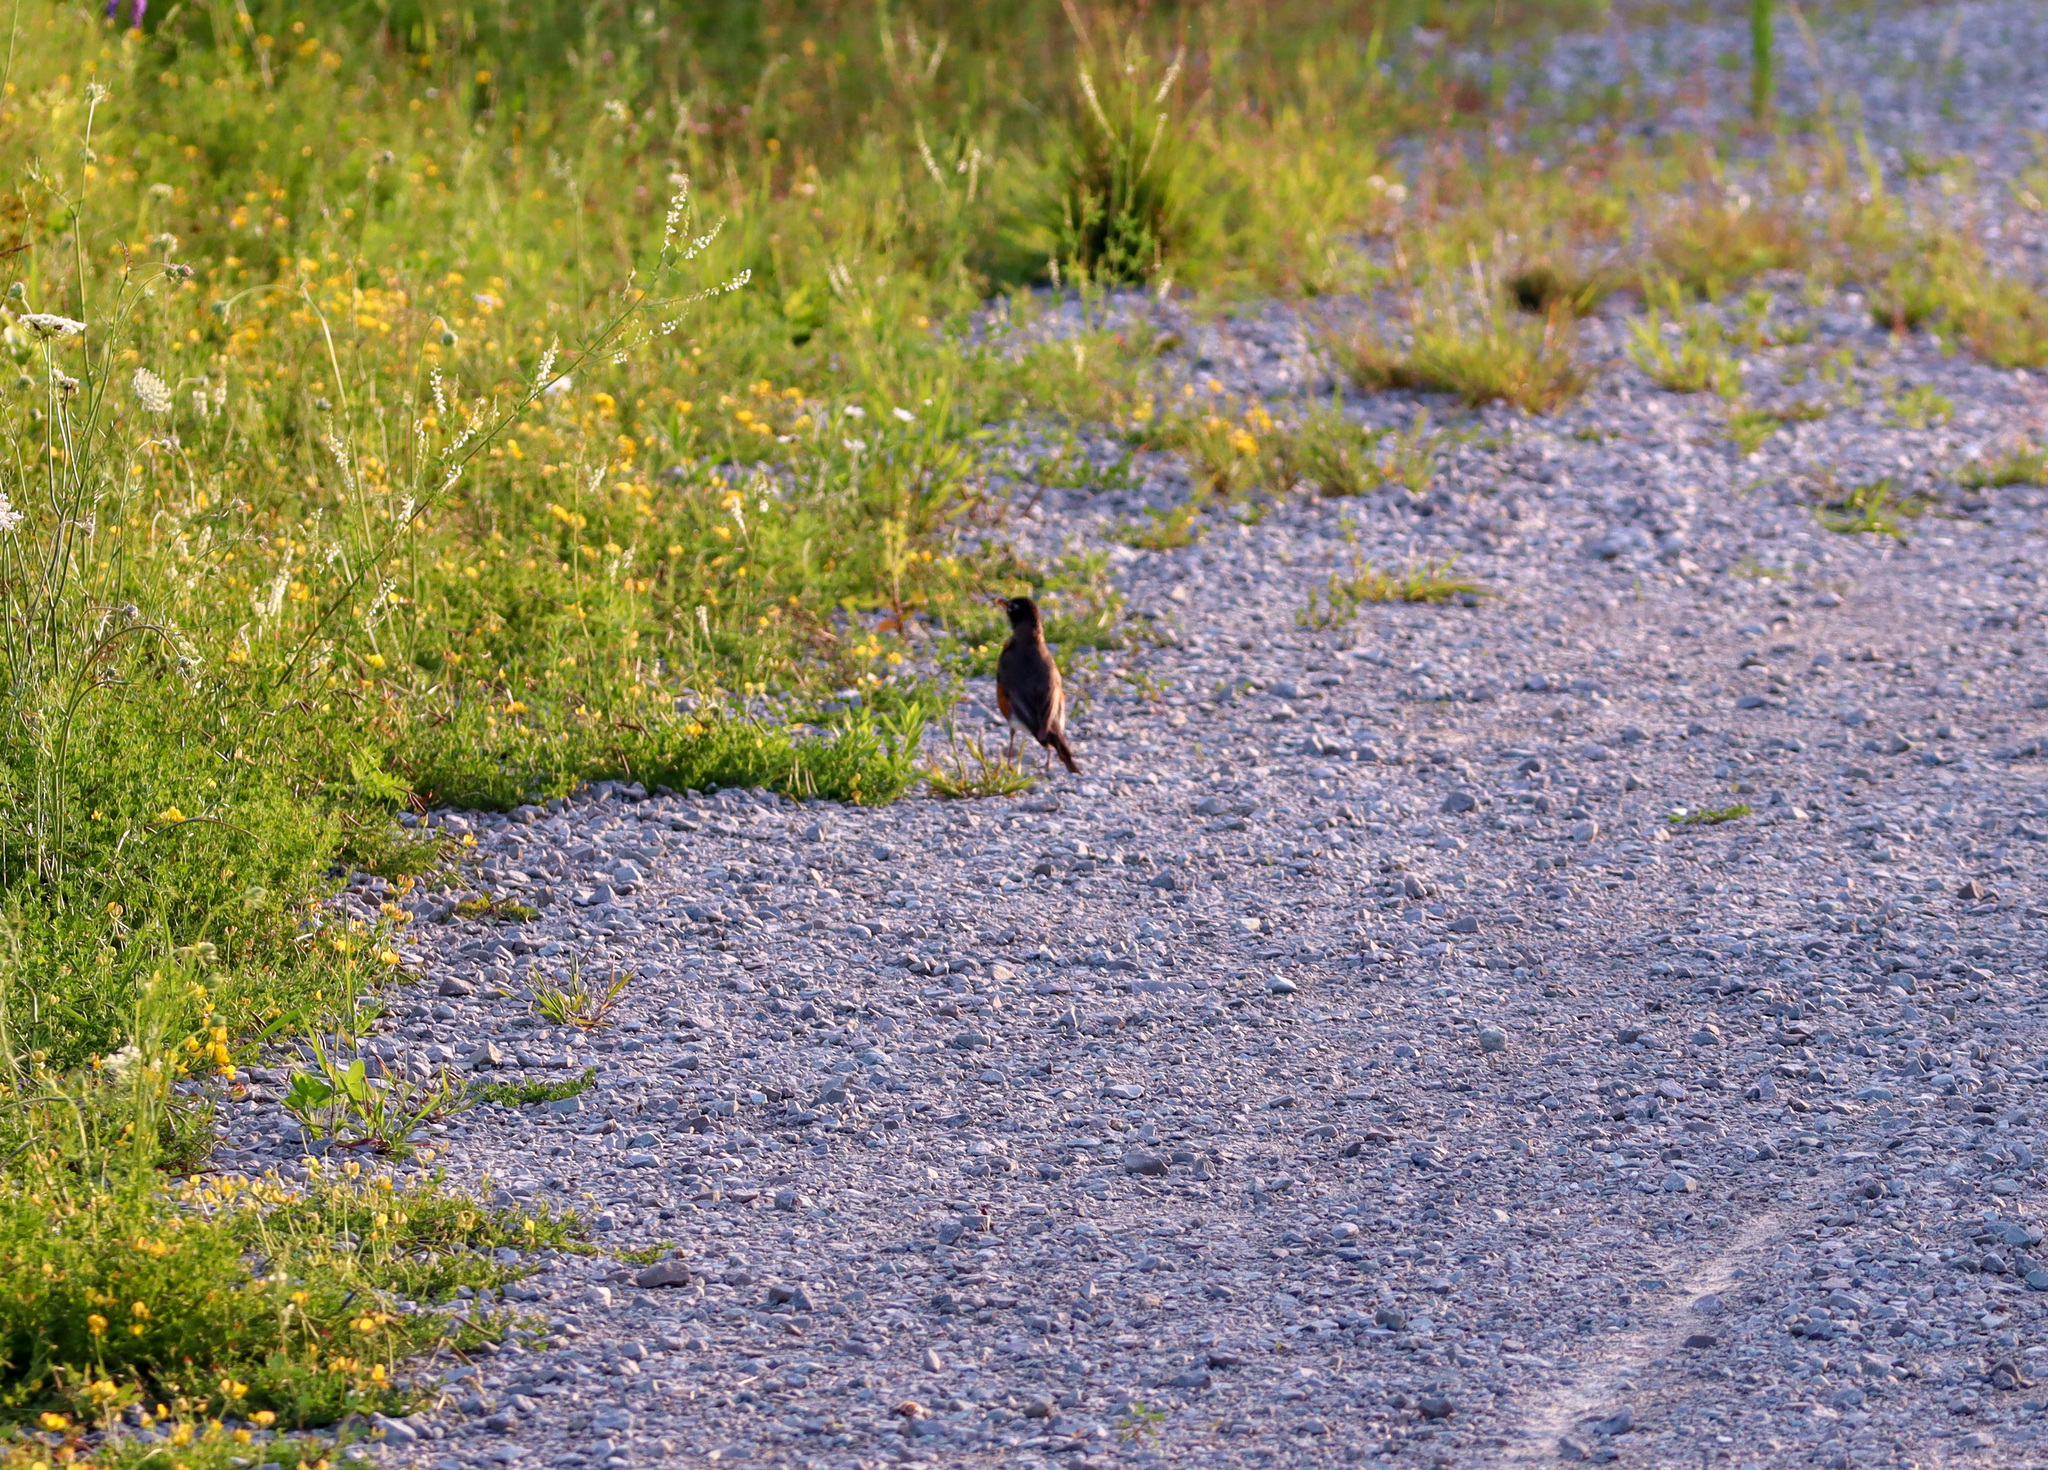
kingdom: Animalia
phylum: Chordata
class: Aves
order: Passeriformes
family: Turdidae
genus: Turdus
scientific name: Turdus migratorius
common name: American robin
